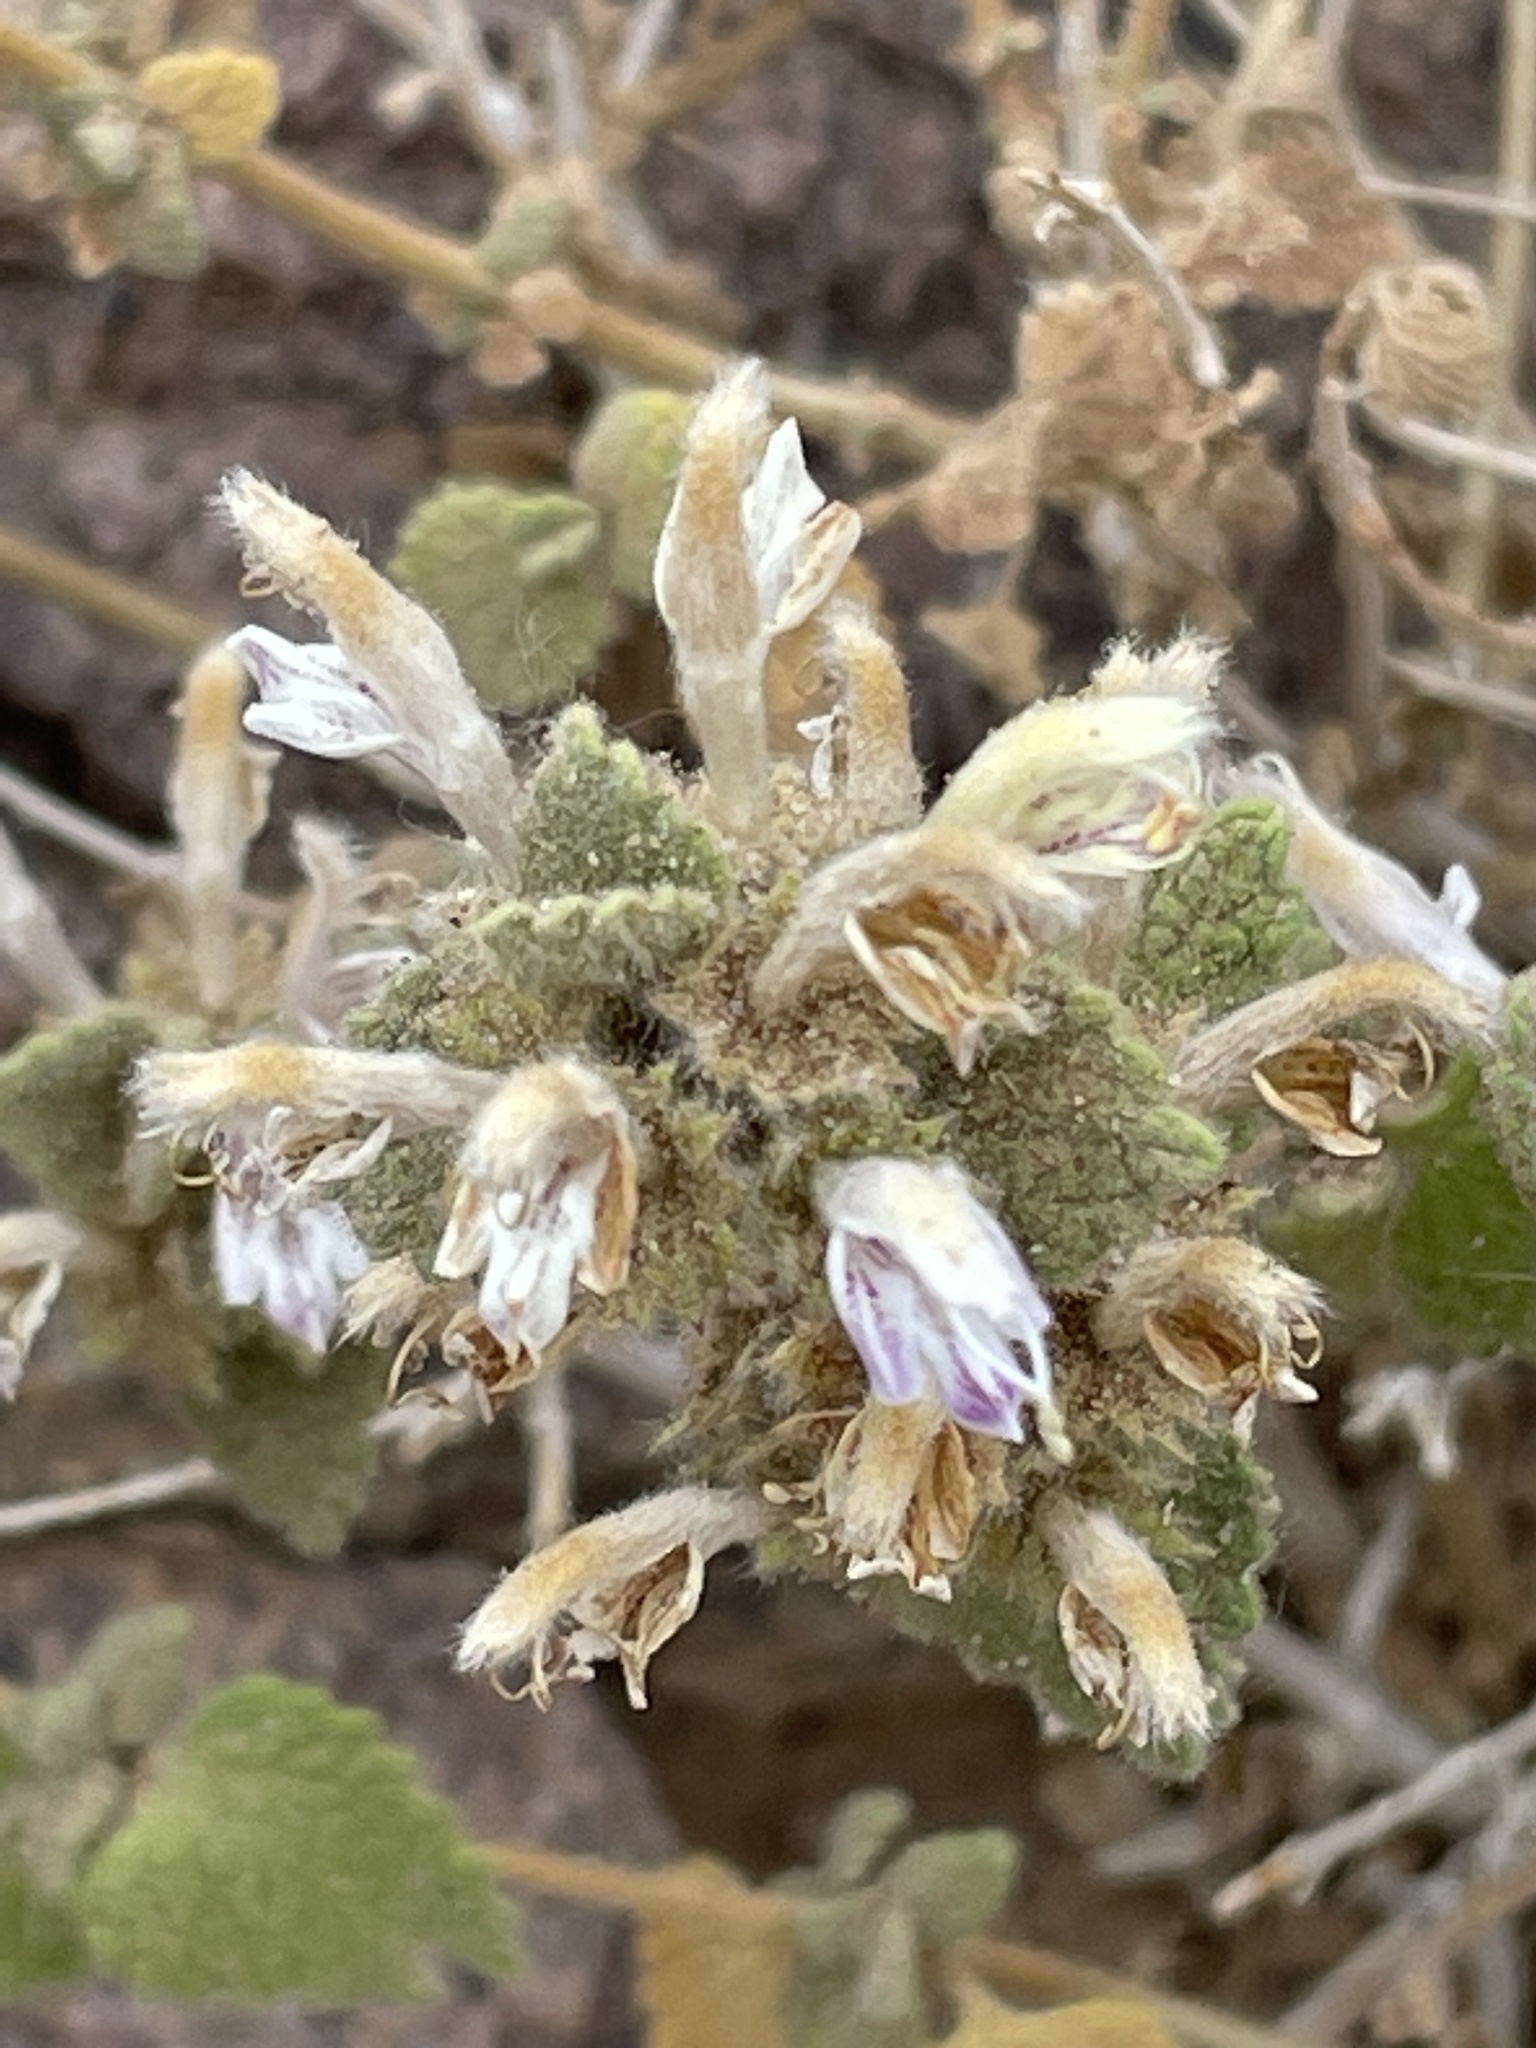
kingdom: Plantae
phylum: Tracheophyta
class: Magnoliopsida
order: Lamiales
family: Lamiaceae
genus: Pseudodictamnus
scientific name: Pseudodictamnus hirsutus
